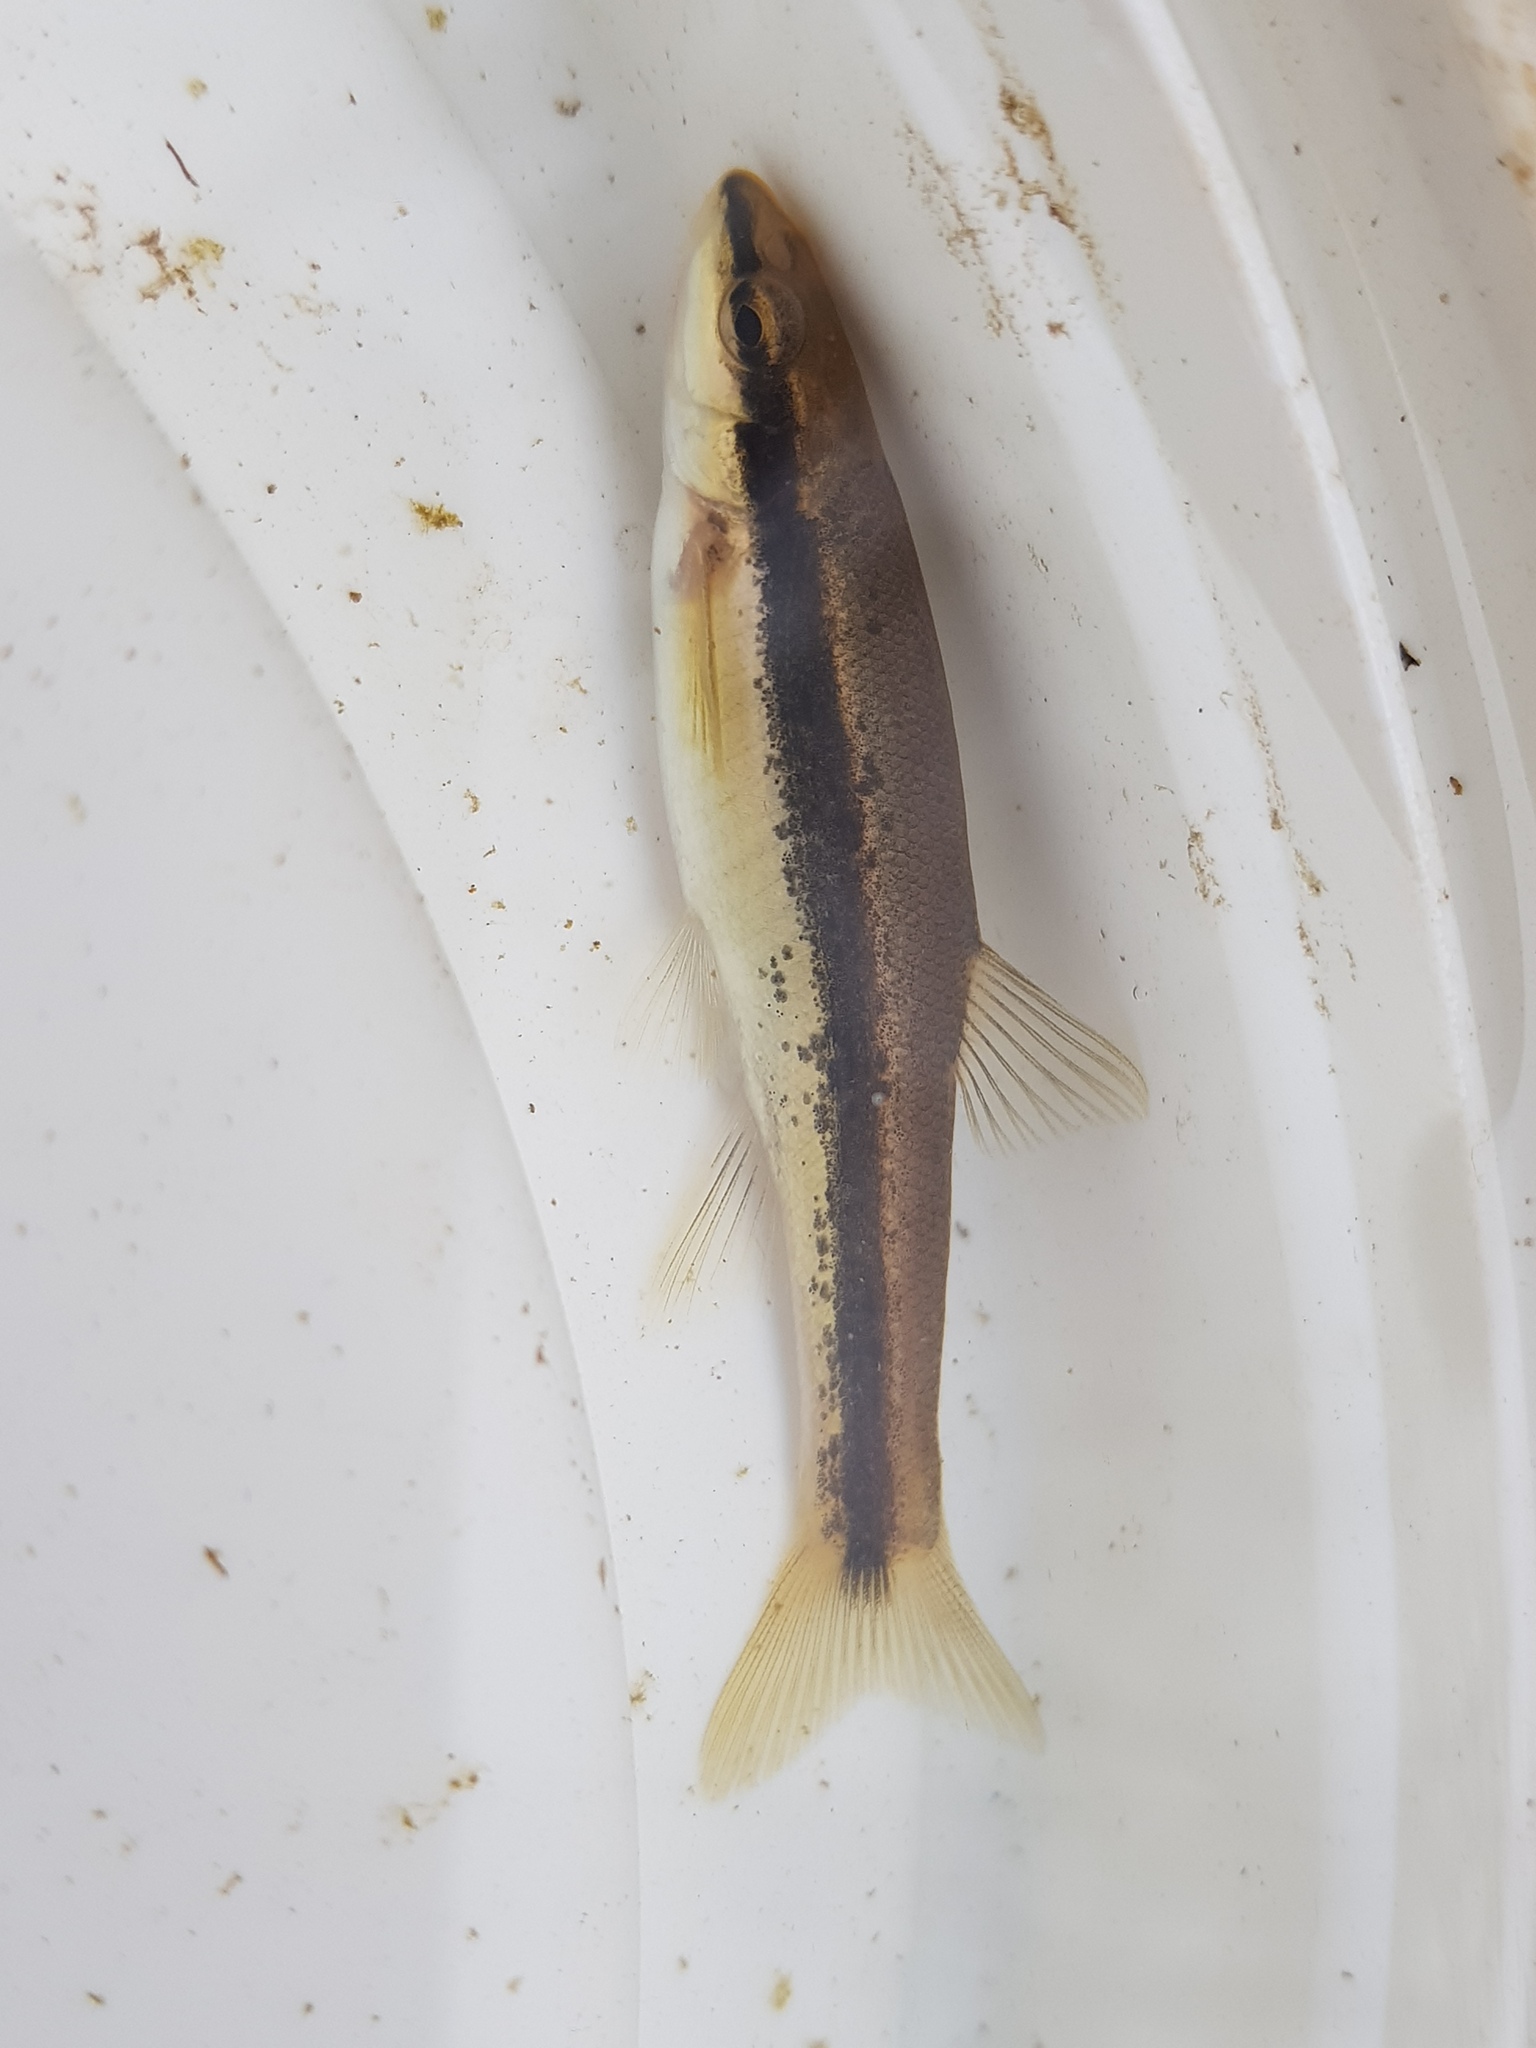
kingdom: Animalia
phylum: Chordata
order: Cypriniformes
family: Cyprinidae
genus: Rhinichthys
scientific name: Rhinichthys atratulus
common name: Eastern blacknose dace
